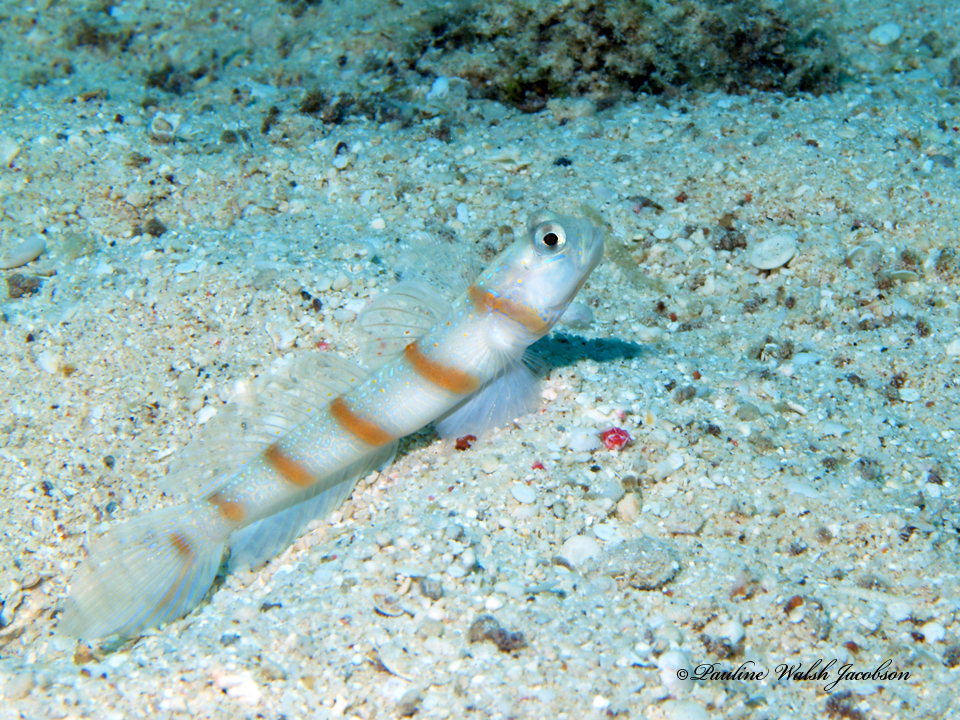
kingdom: Animalia
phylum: Chordata
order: Perciformes
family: Gobiidae
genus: Amblyeleotris
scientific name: Amblyeleotris sungami
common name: Magnus' prawn-goby
